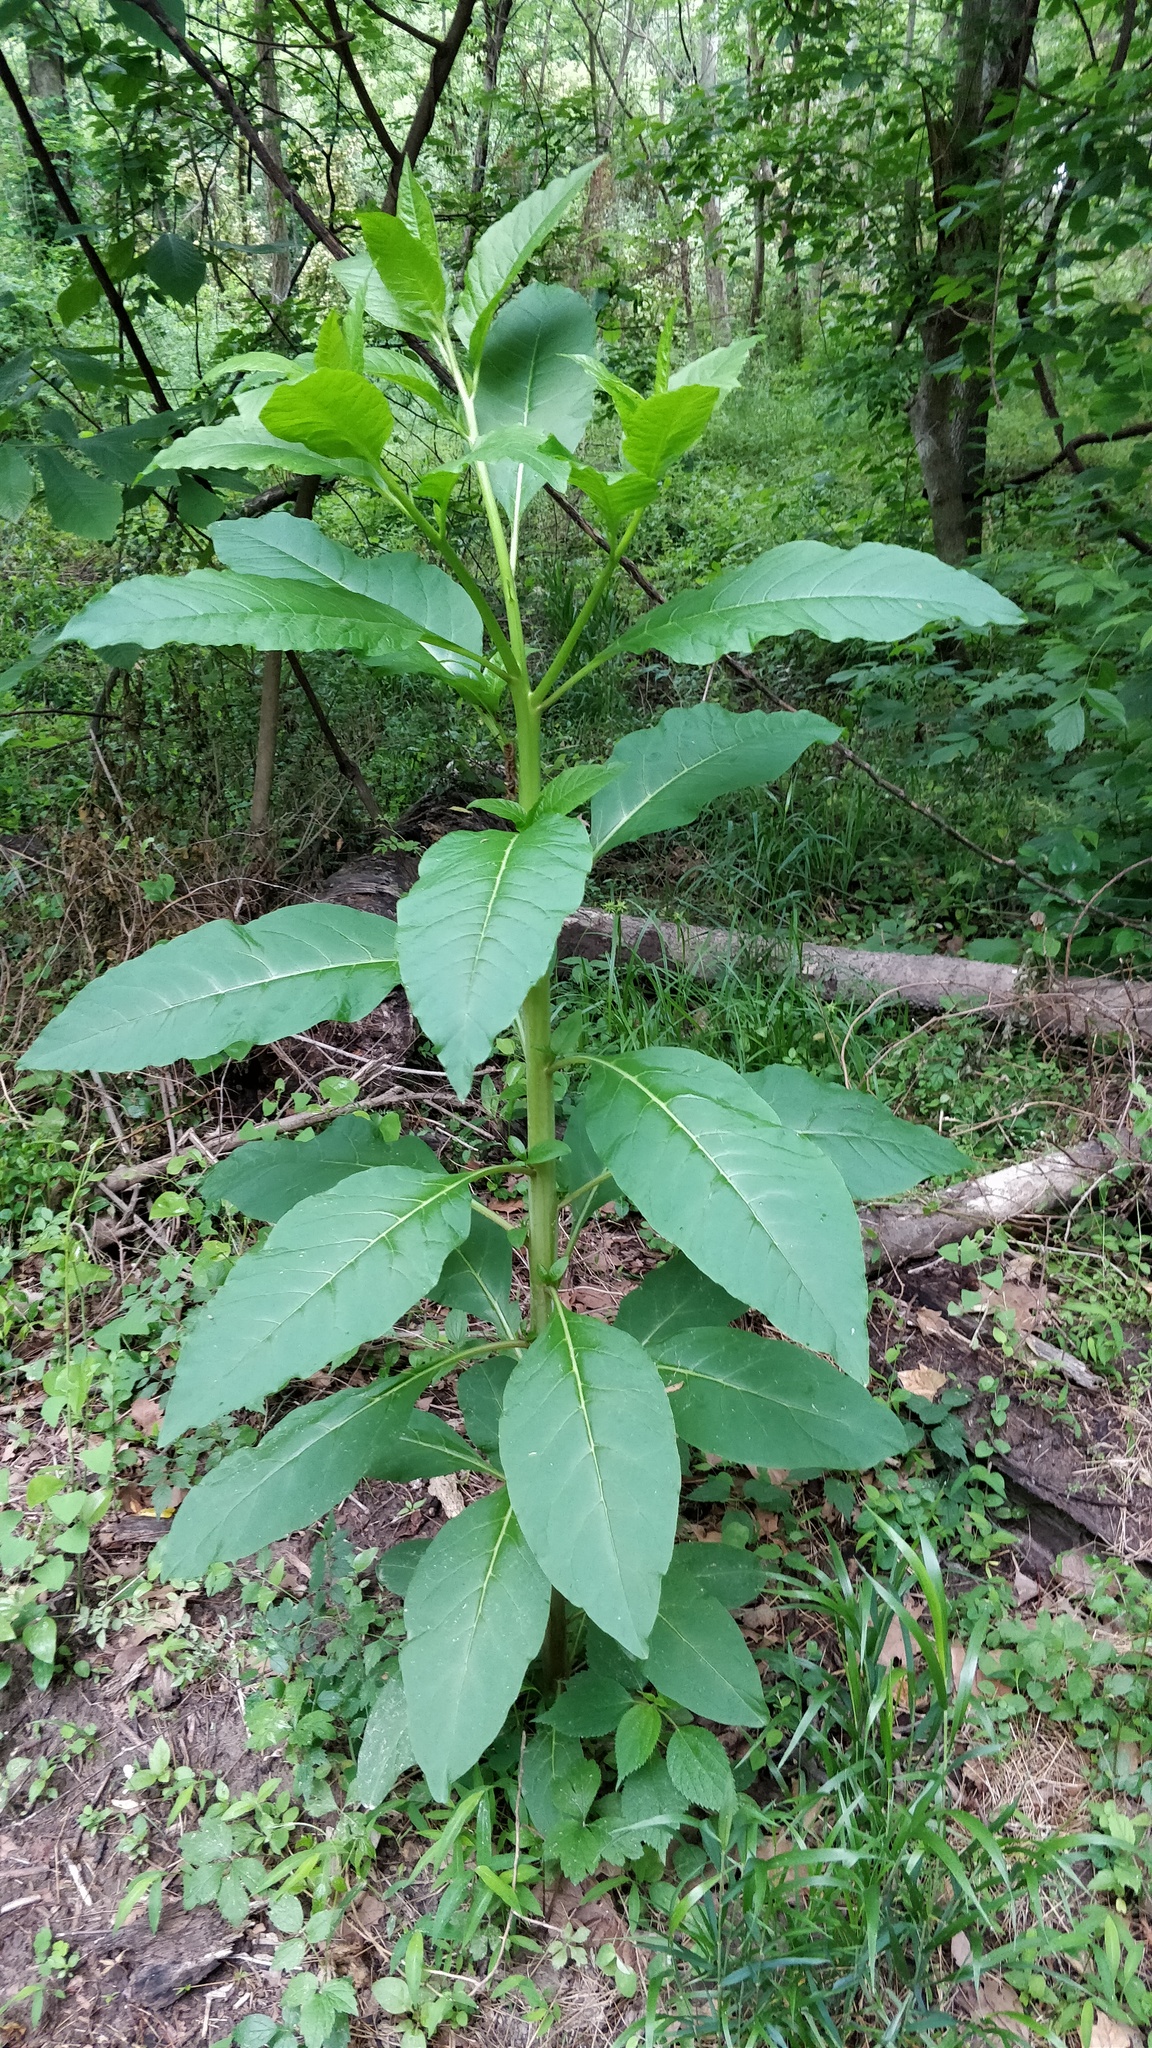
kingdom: Plantae
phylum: Tracheophyta
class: Magnoliopsida
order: Caryophyllales
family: Phytolaccaceae
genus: Phytolacca
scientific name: Phytolacca americana
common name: American pokeweed
